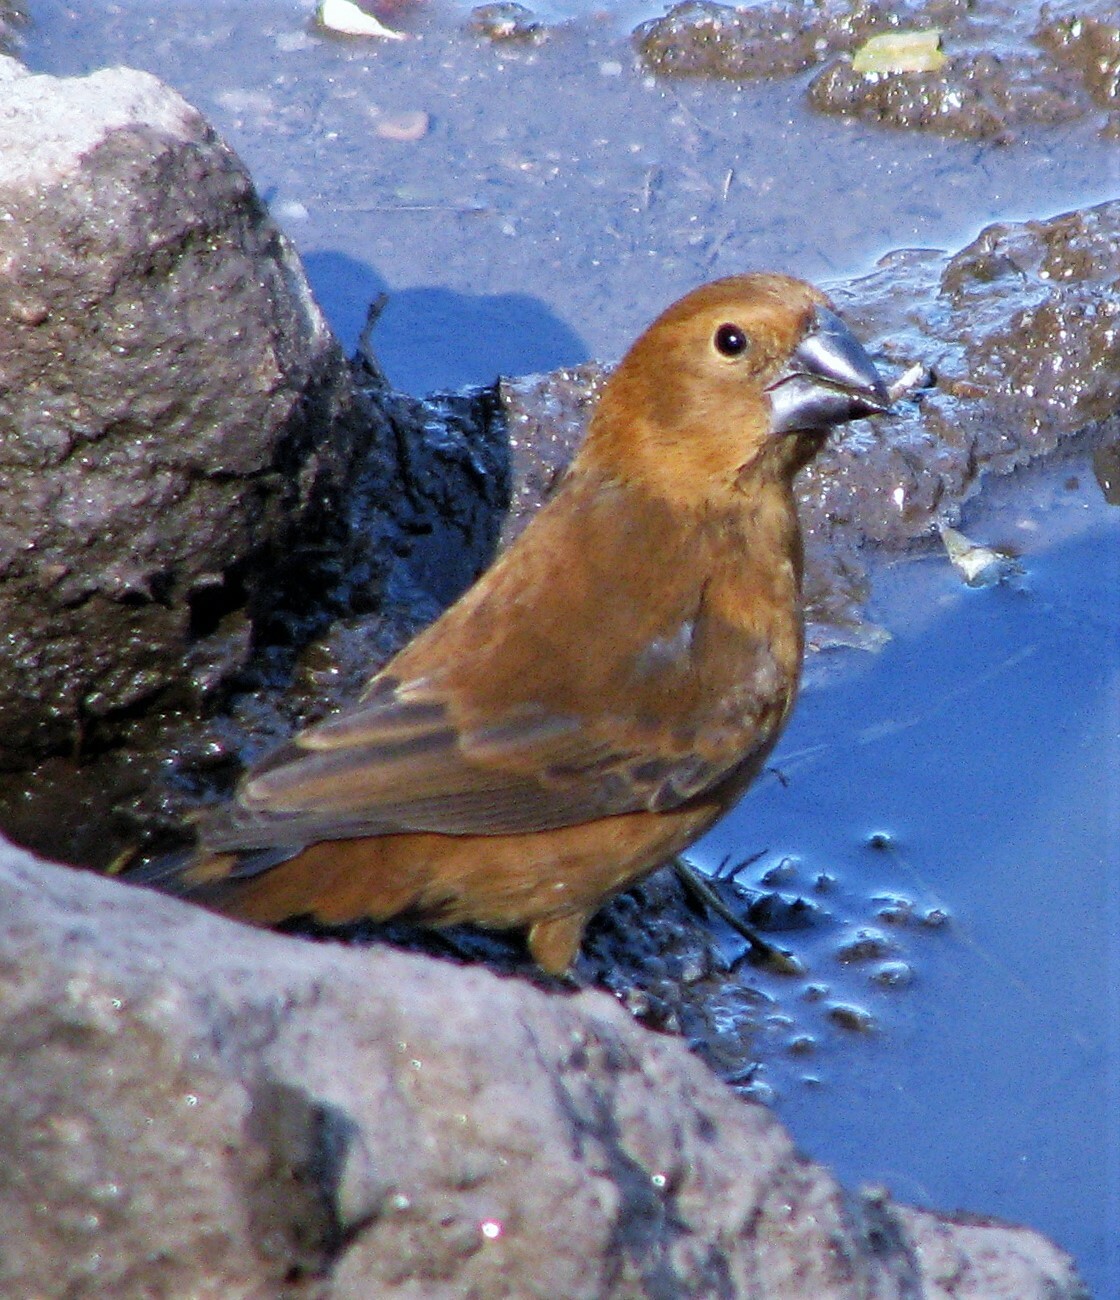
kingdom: Animalia
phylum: Chordata
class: Aves
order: Passeriformes
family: Cardinalidae
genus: Cyanoloxia
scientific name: Cyanoloxia brissonii
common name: Ultramarine grosbeak
